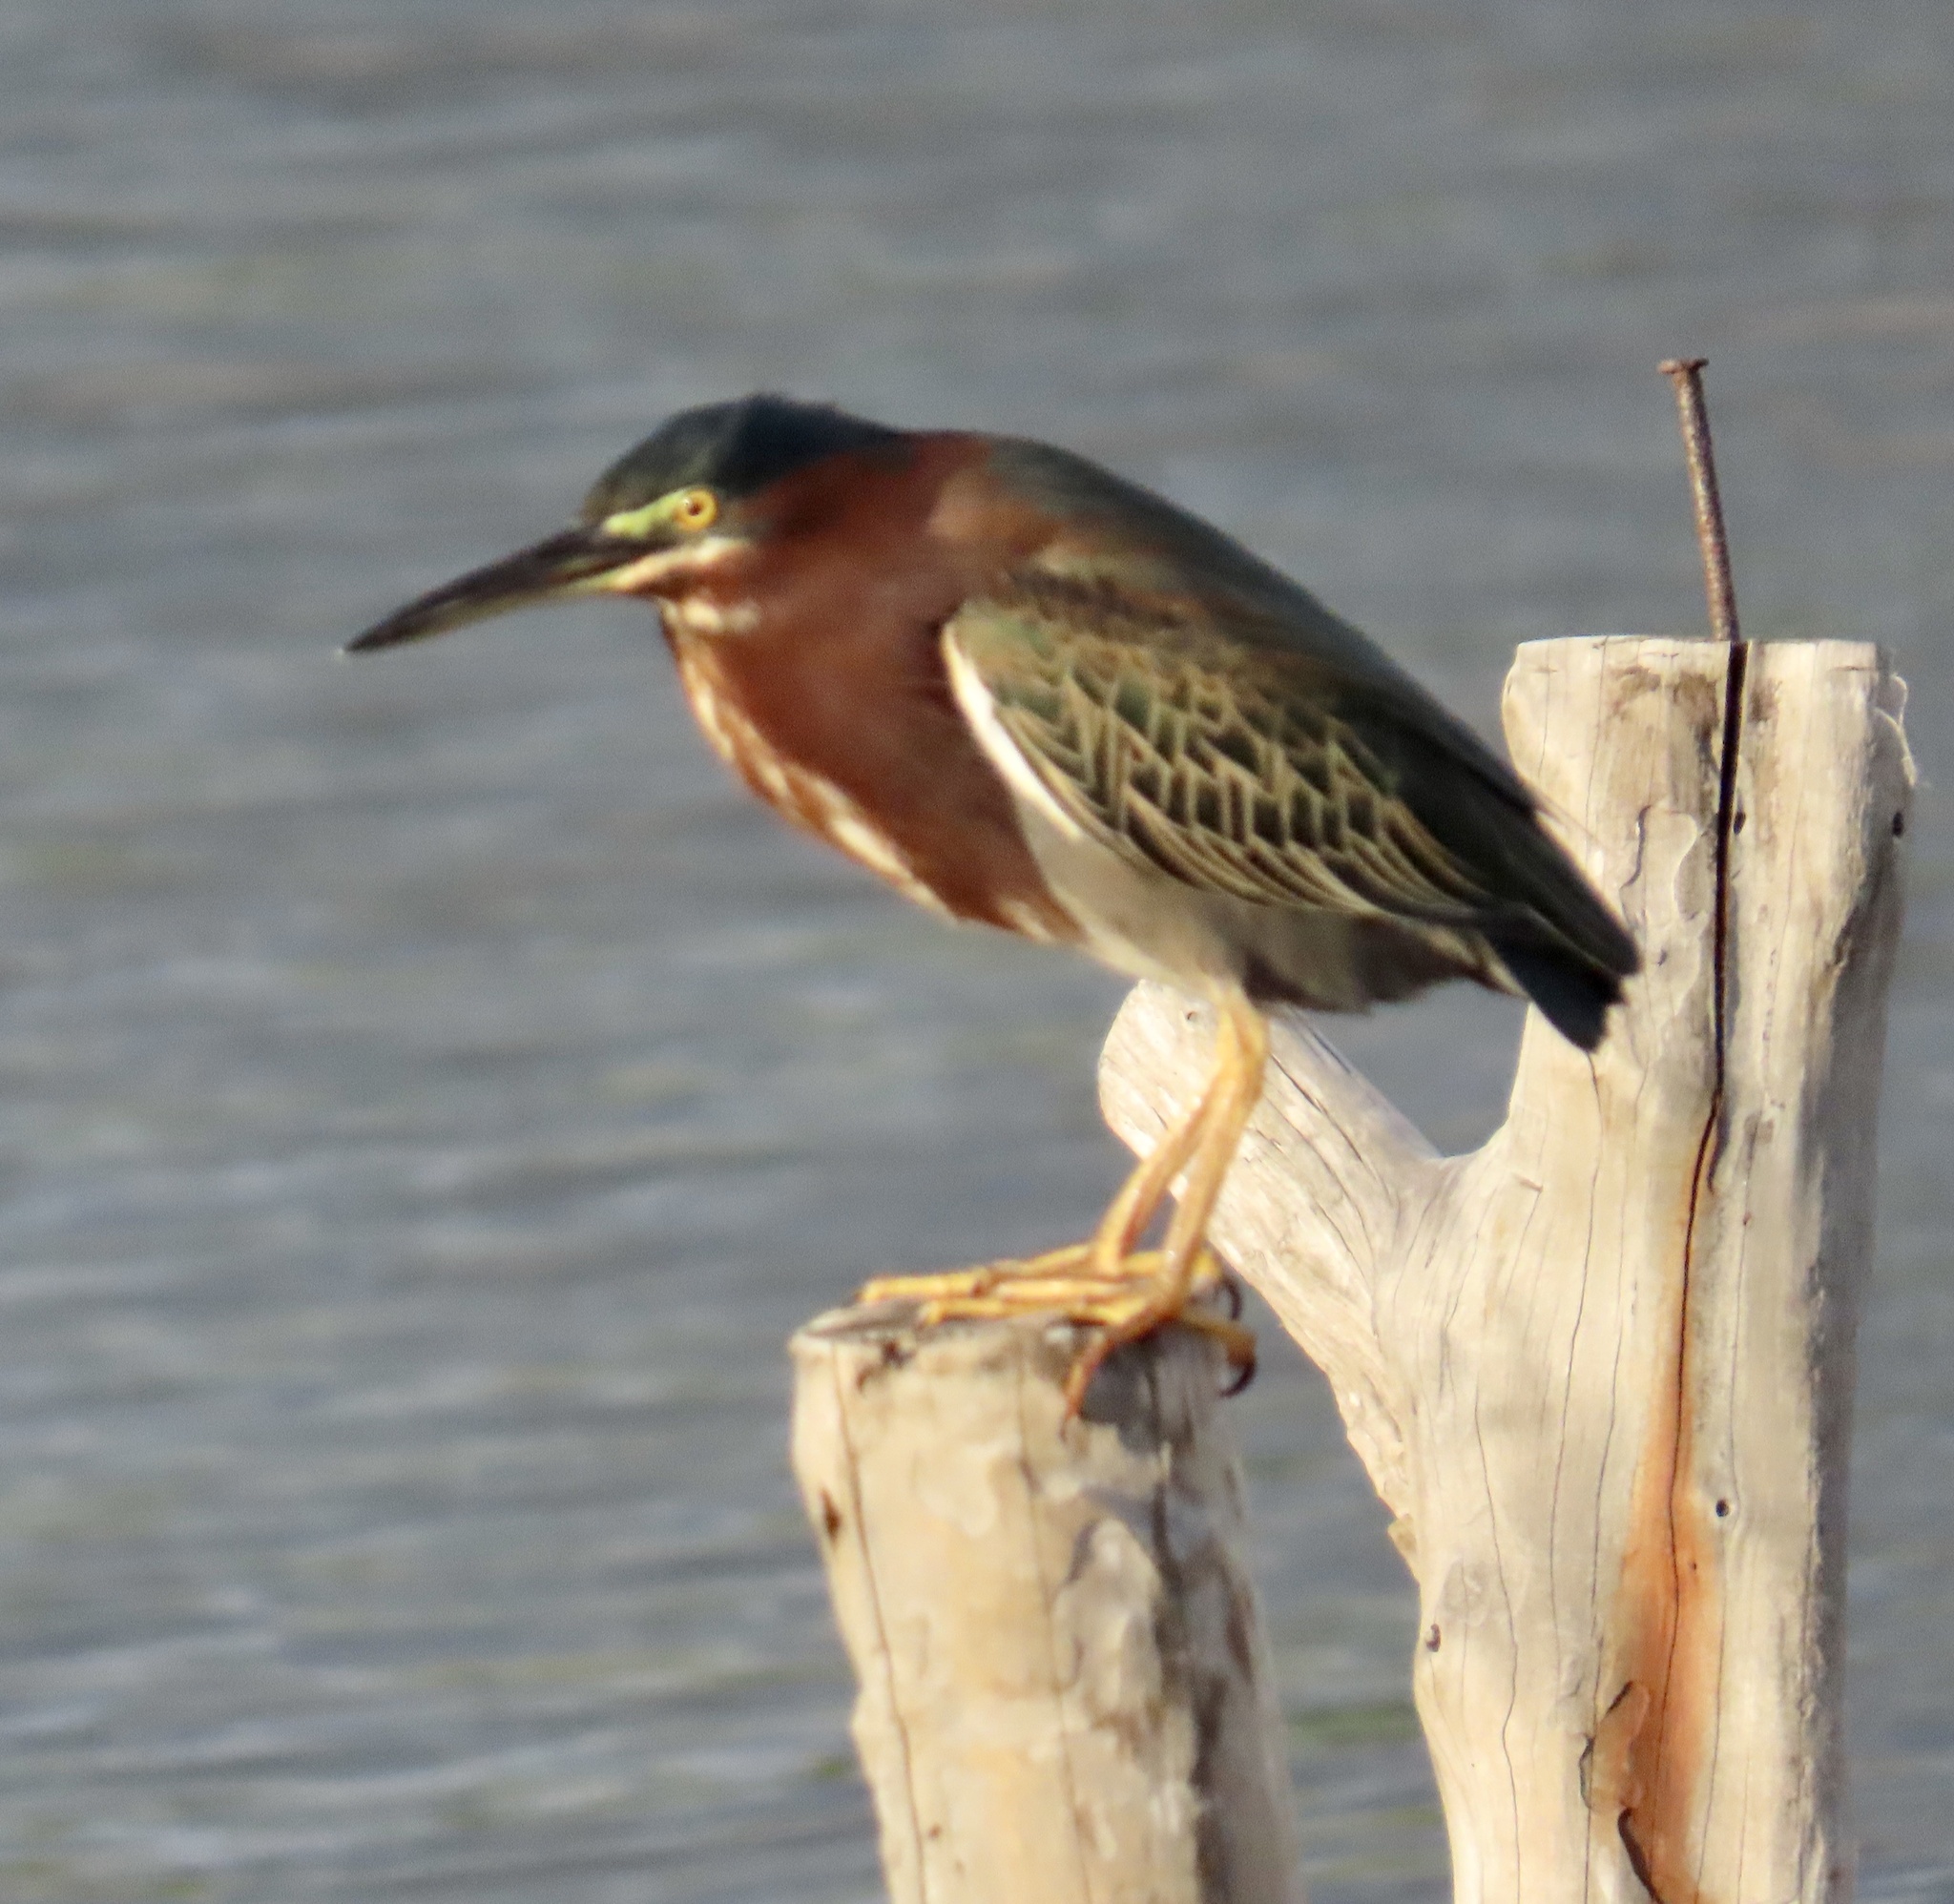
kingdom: Animalia
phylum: Chordata
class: Aves
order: Pelecaniformes
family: Ardeidae
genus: Butorides
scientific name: Butorides virescens
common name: Green heron
